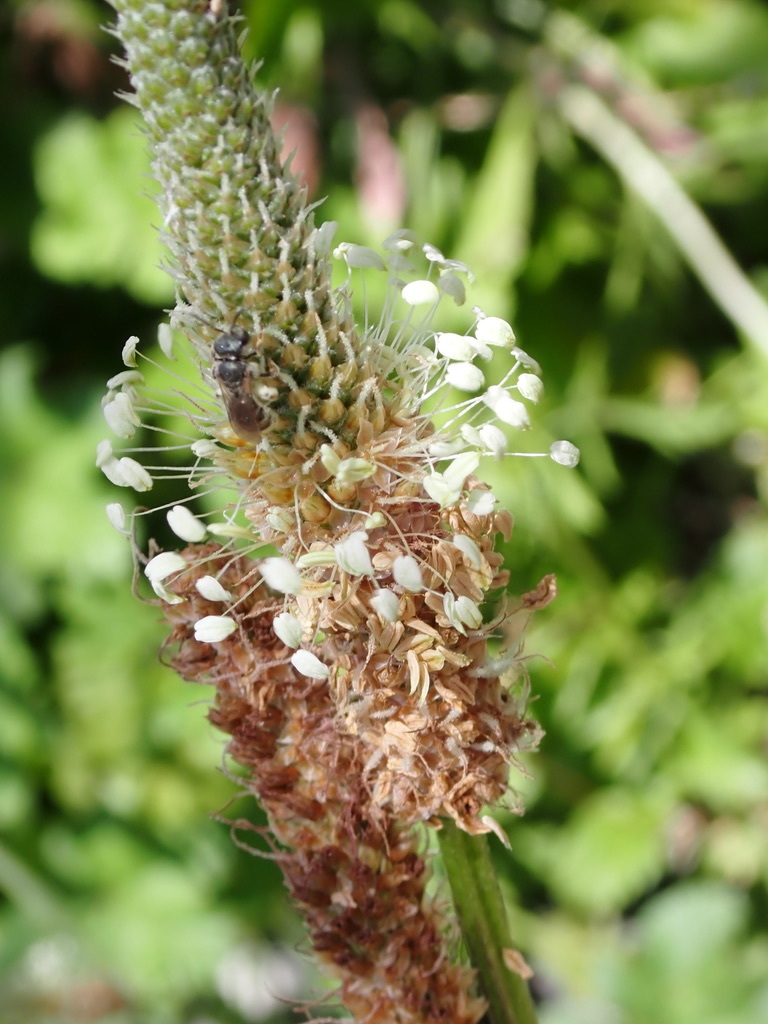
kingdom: Plantae
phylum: Tracheophyta
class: Magnoliopsida
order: Lamiales
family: Plantaginaceae
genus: Plantago
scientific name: Plantago lanceolata
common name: Ribwort plantain
